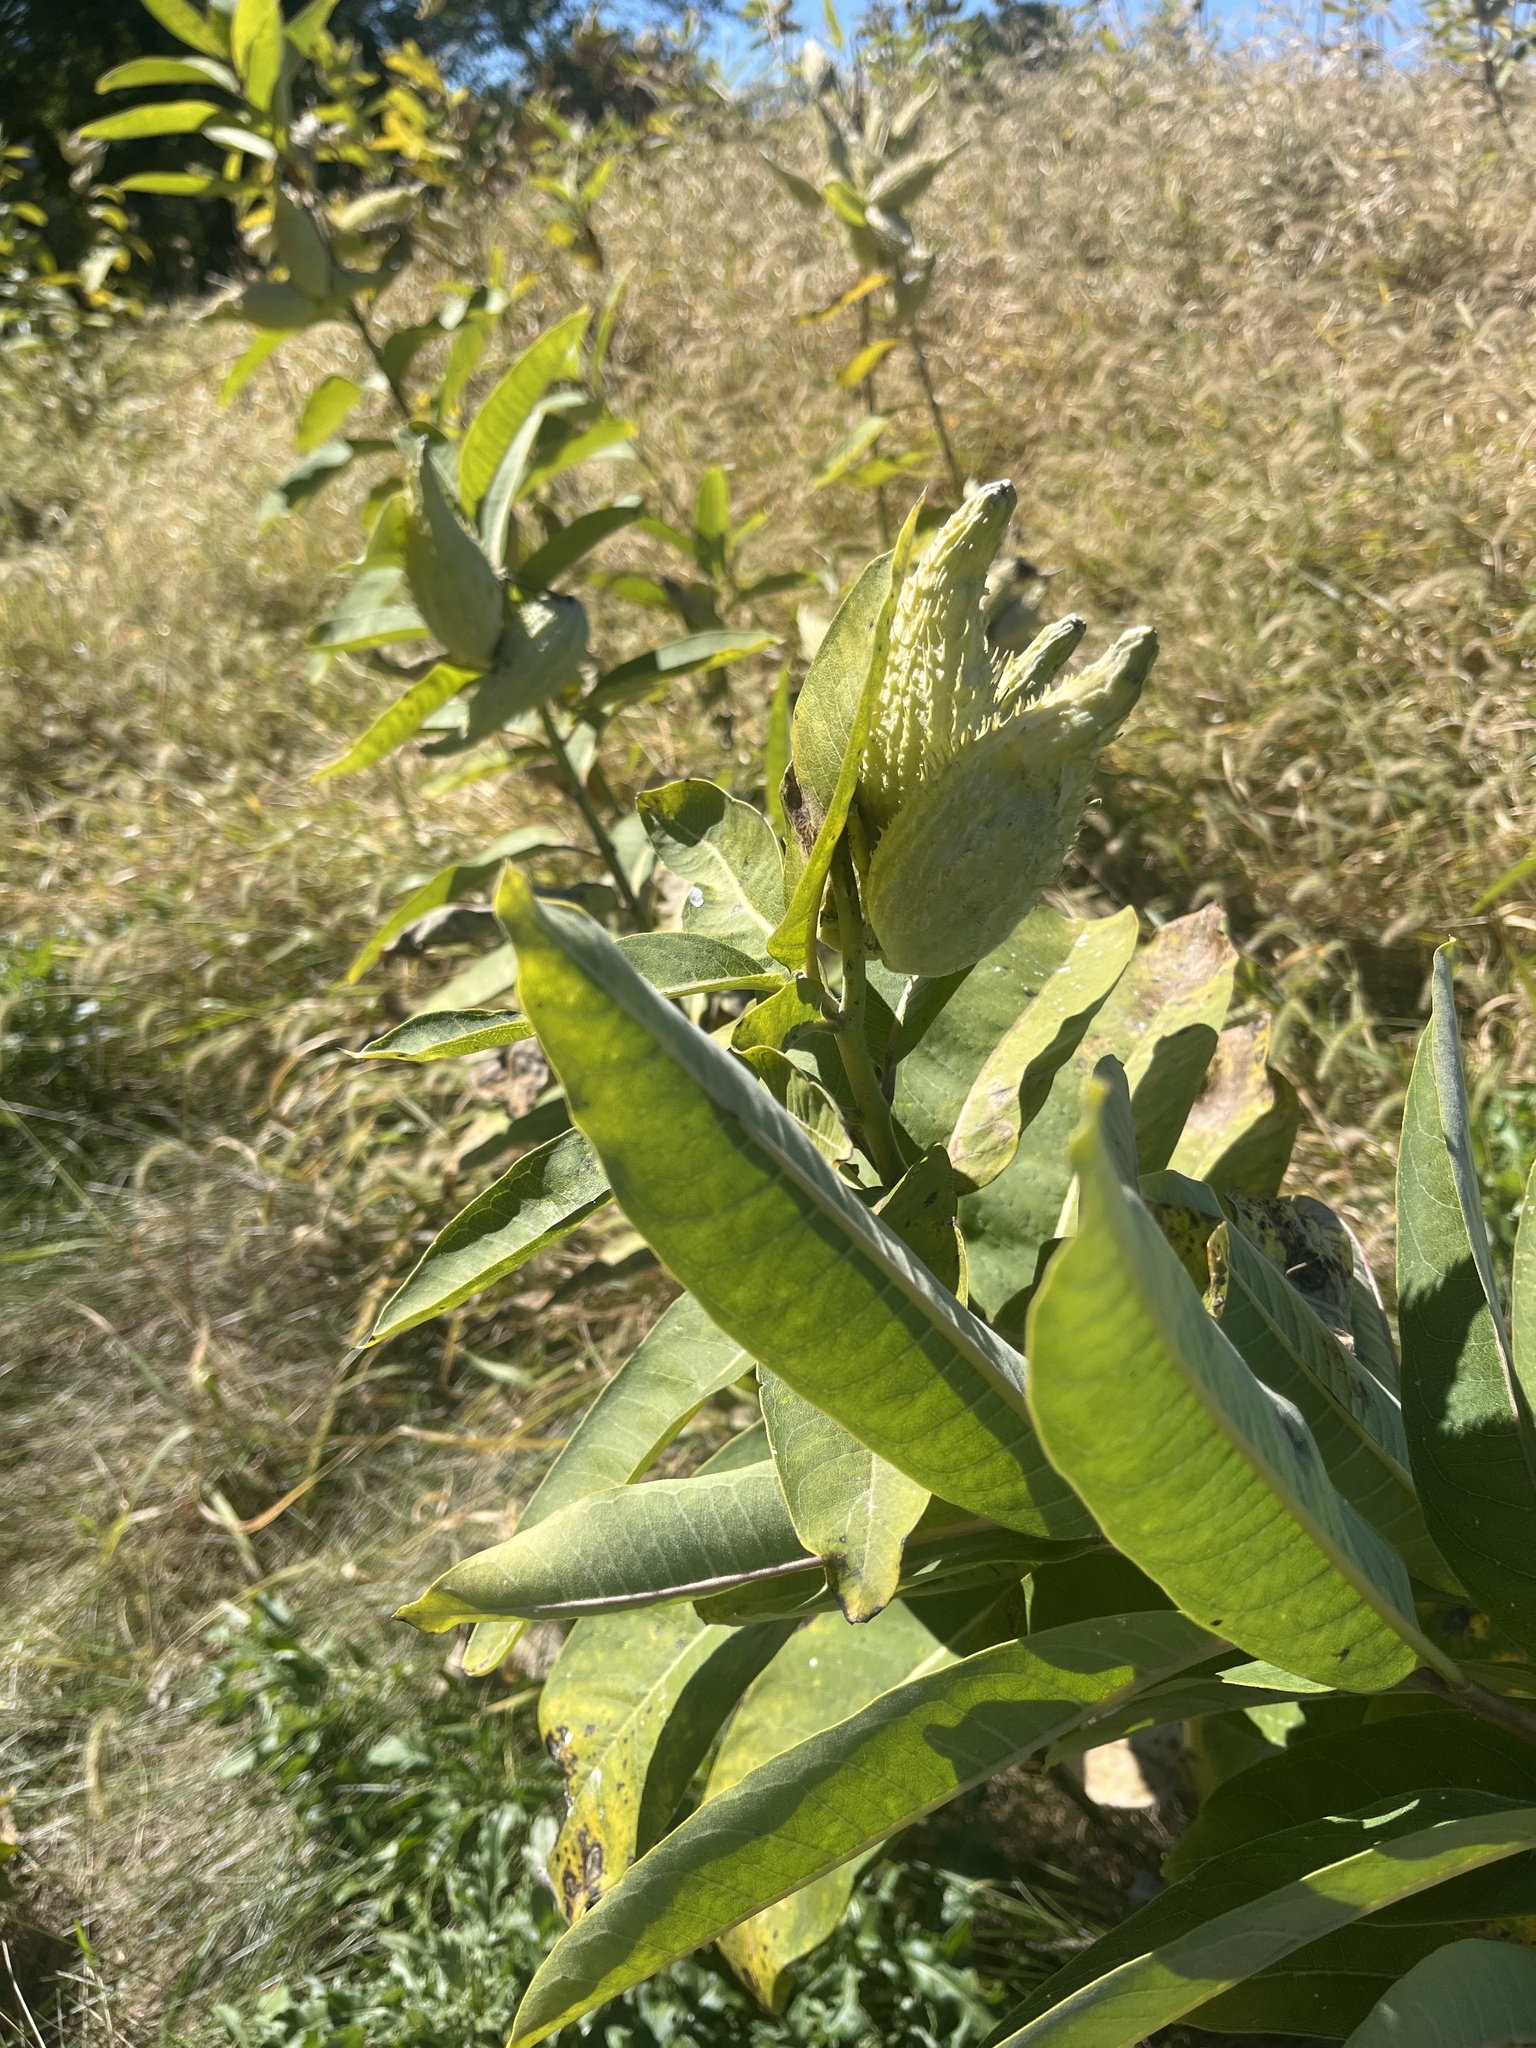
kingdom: Plantae
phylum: Tracheophyta
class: Magnoliopsida
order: Gentianales
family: Apocynaceae
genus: Asclepias
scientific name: Asclepias syriaca
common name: Common milkweed
